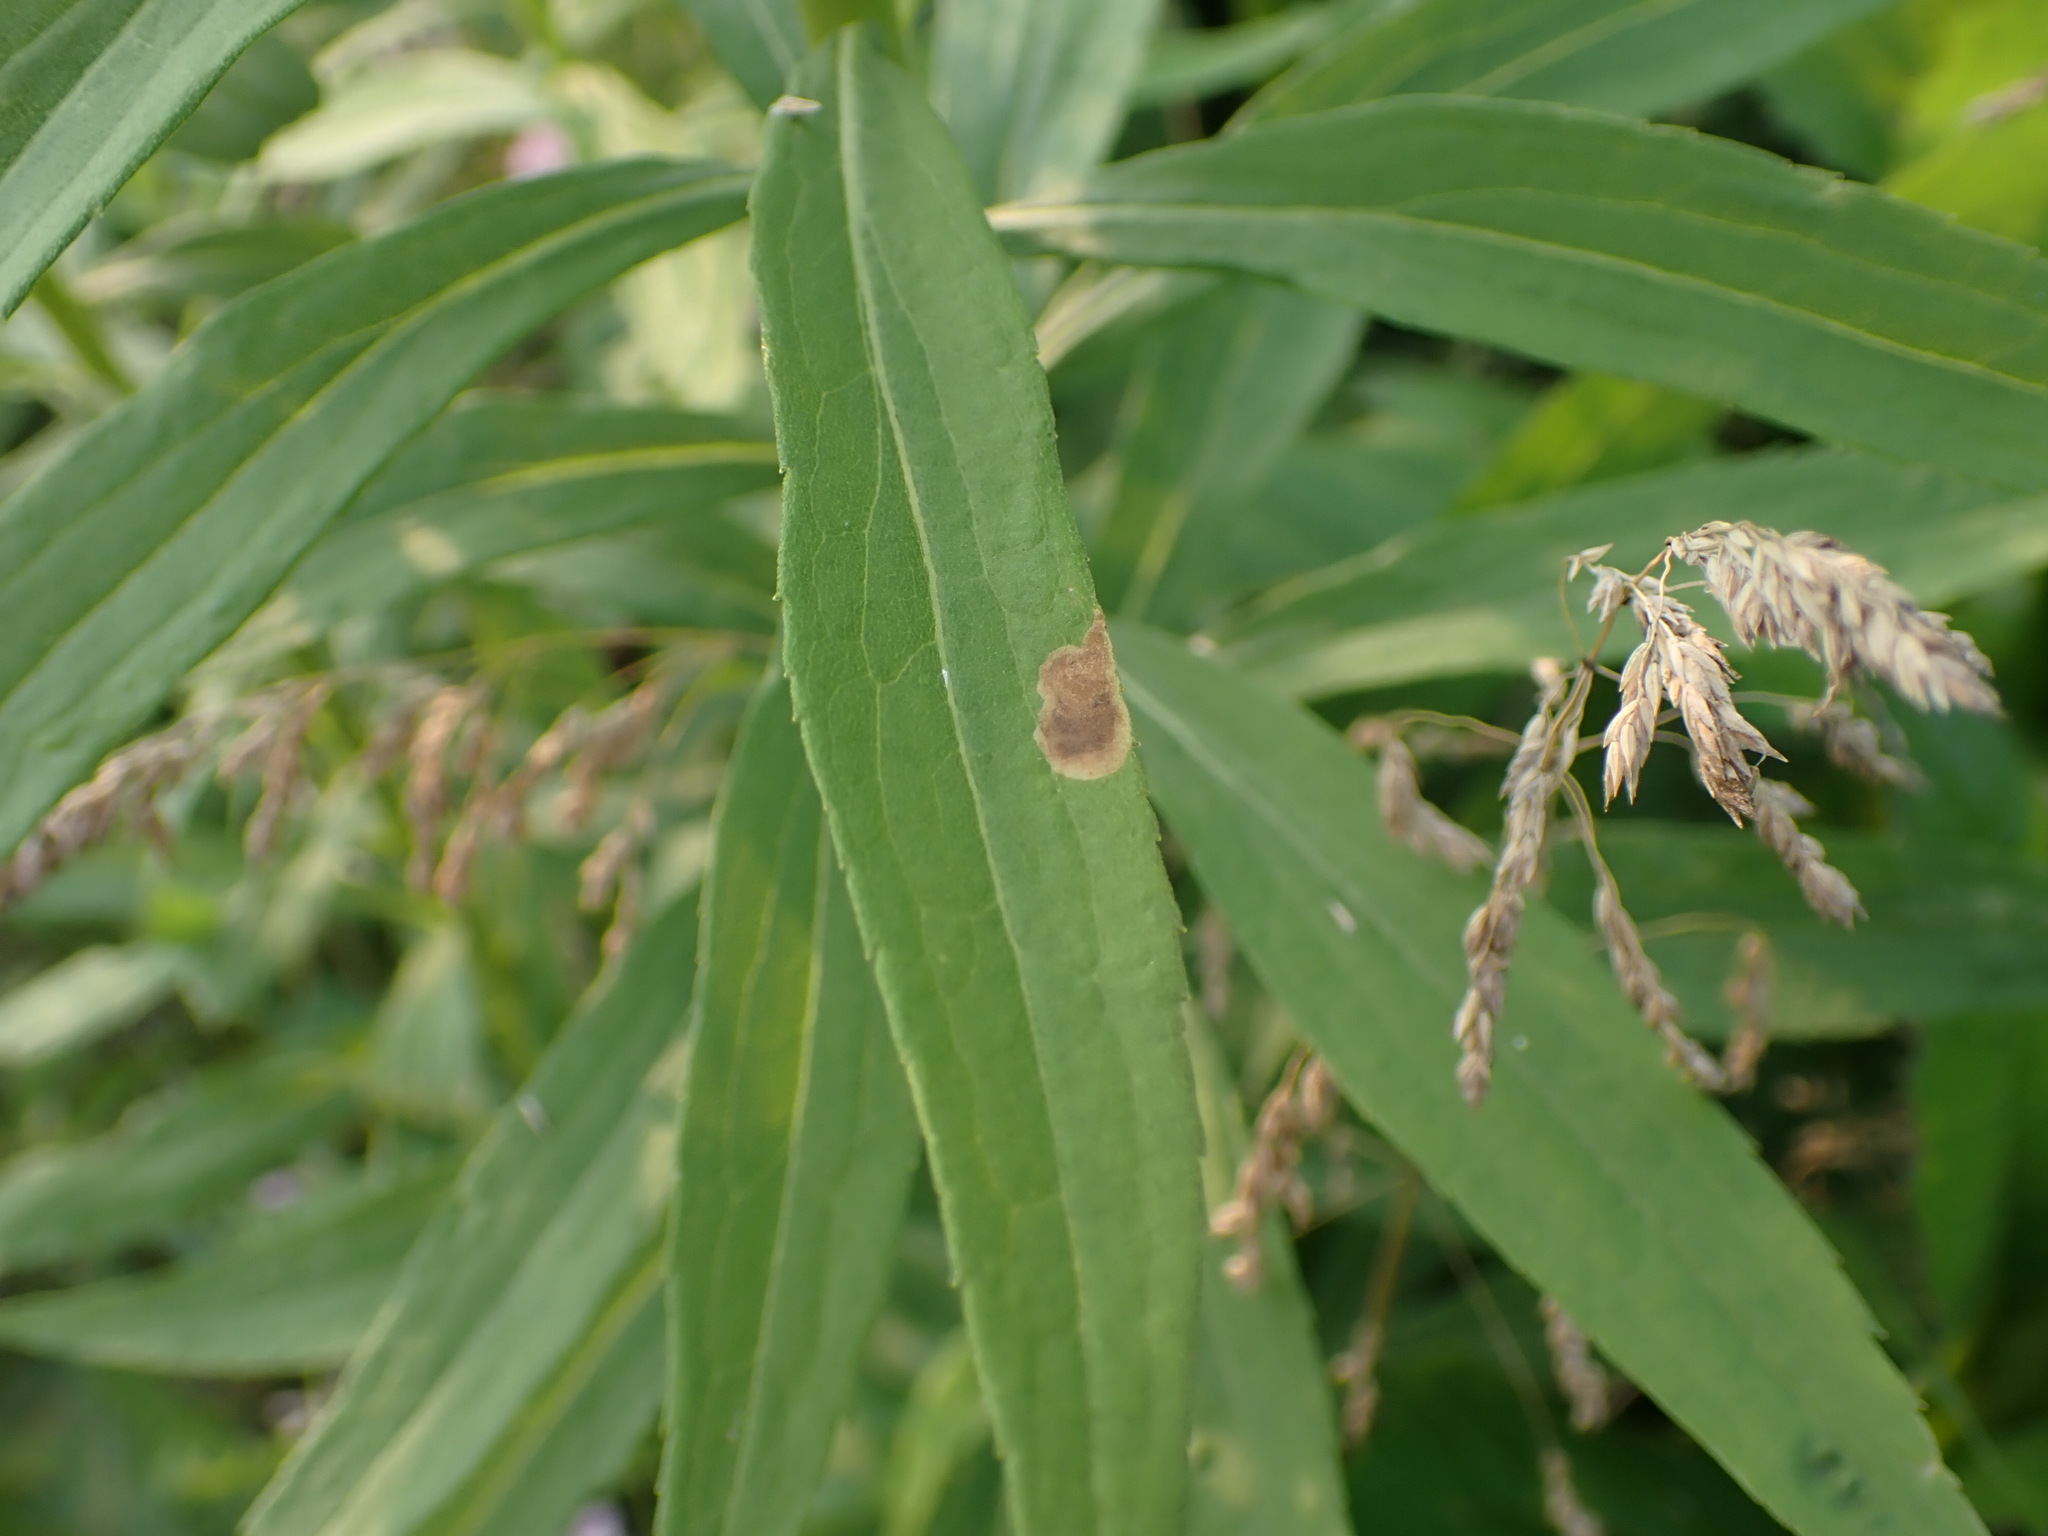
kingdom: Animalia
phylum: Arthropoda
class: Insecta
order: Diptera
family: Agromyzidae
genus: Nemorimyza
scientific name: Nemorimyza posticata
